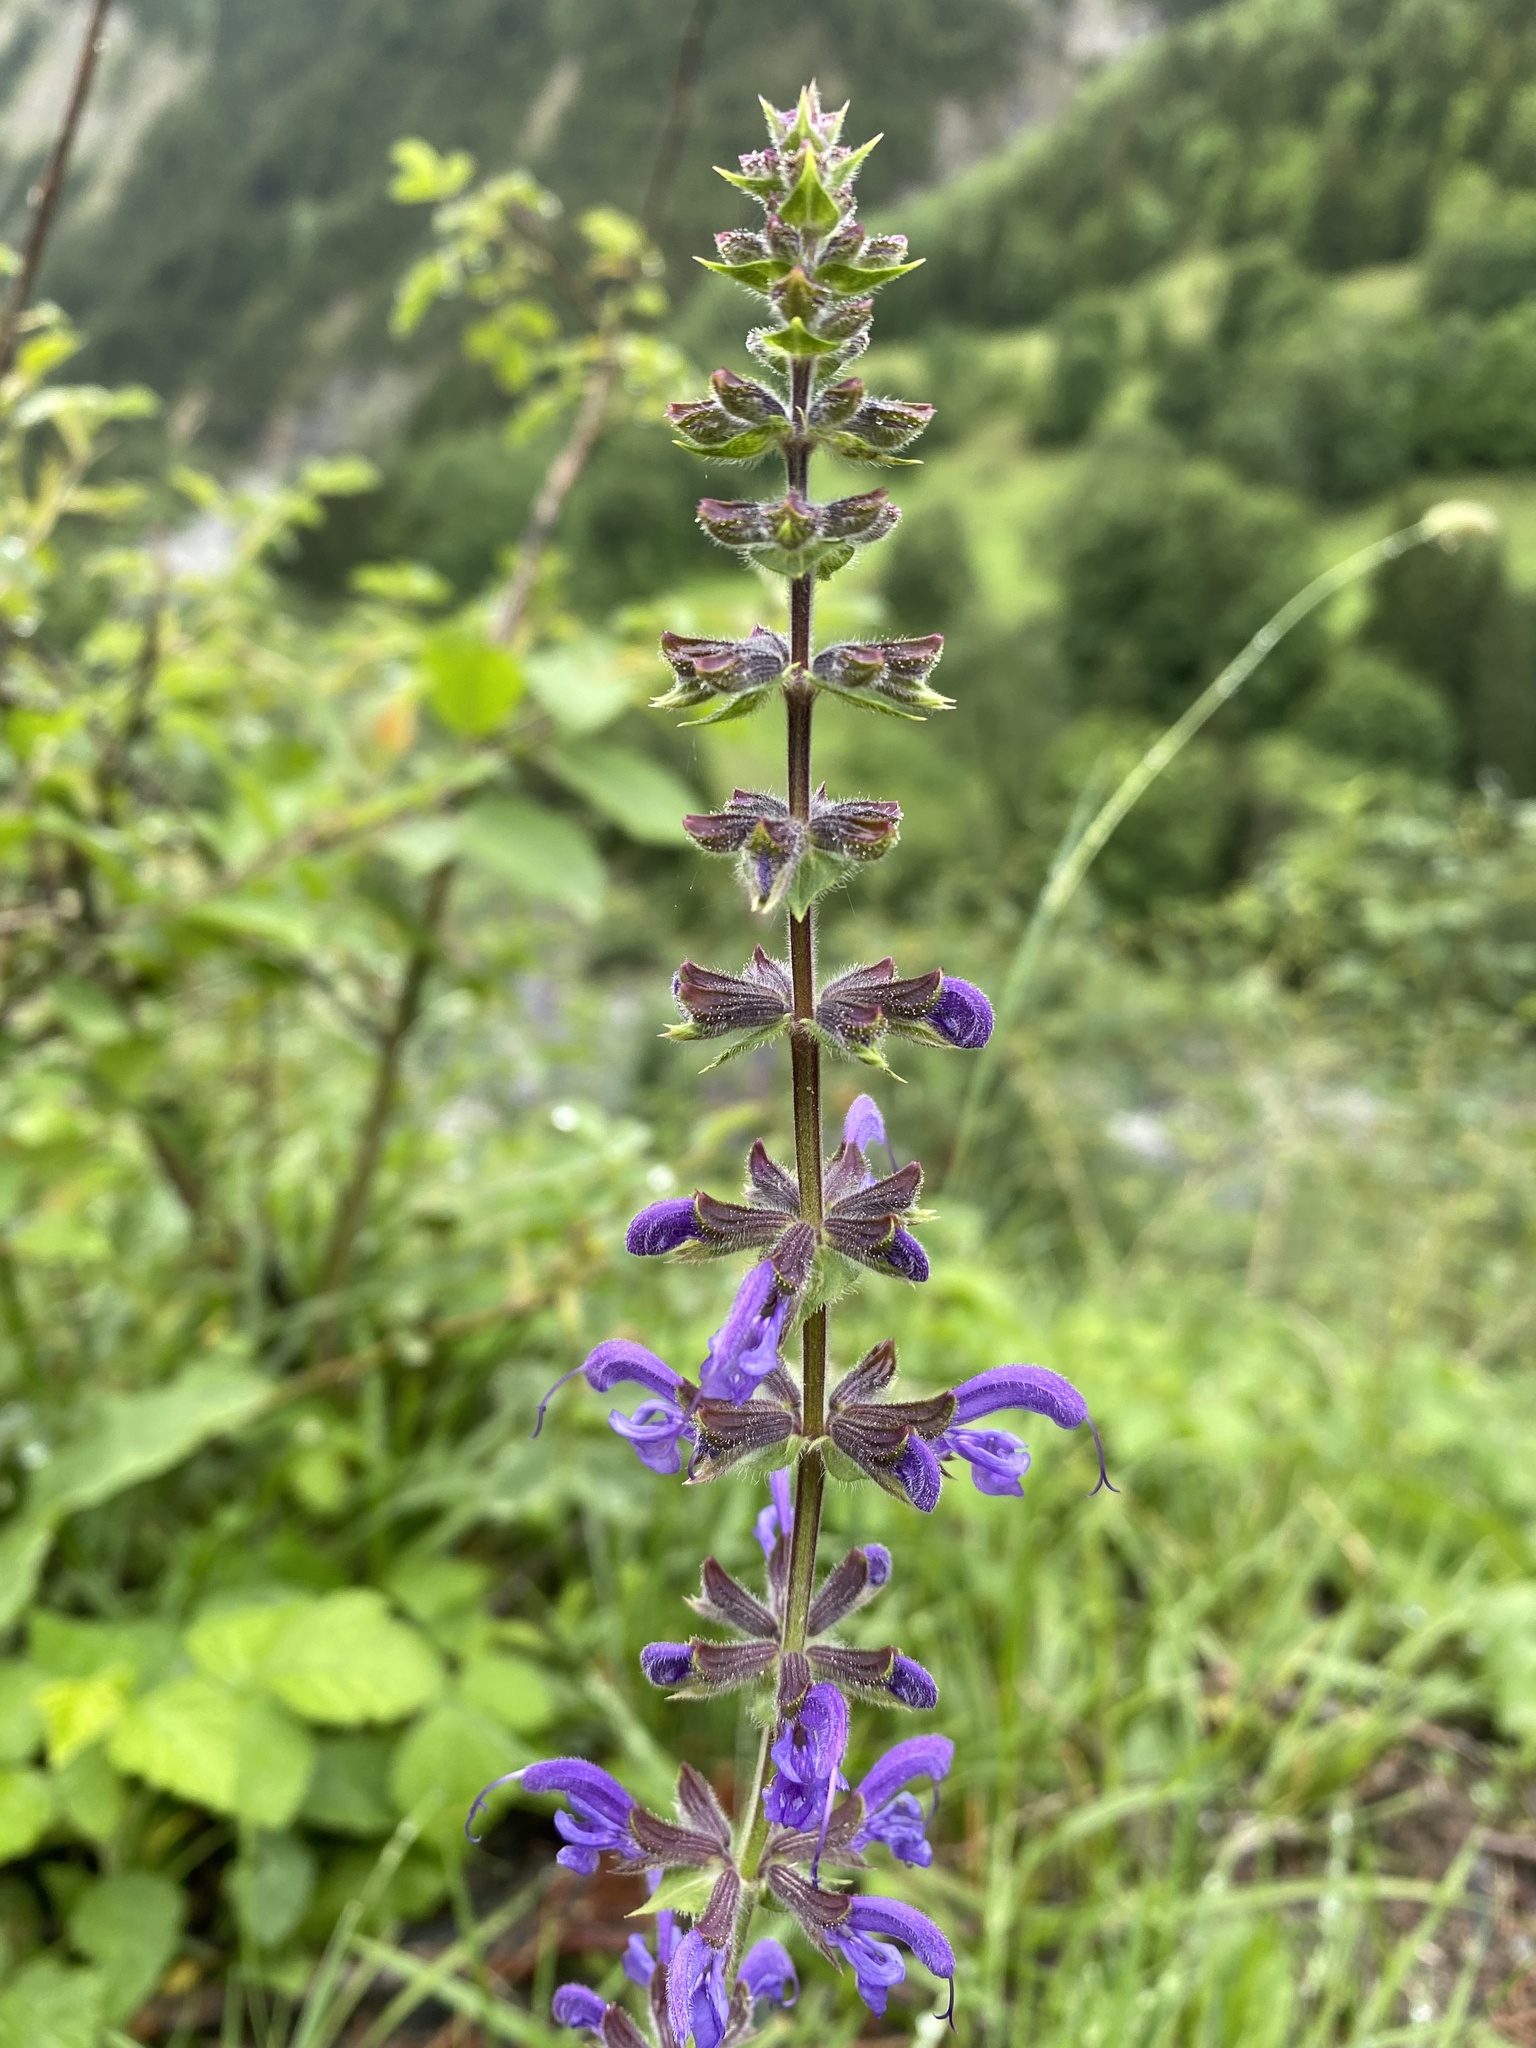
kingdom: Plantae
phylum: Tracheophyta
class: Magnoliopsida
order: Lamiales
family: Lamiaceae
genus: Salvia
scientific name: Salvia pratensis
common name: Meadow sage
